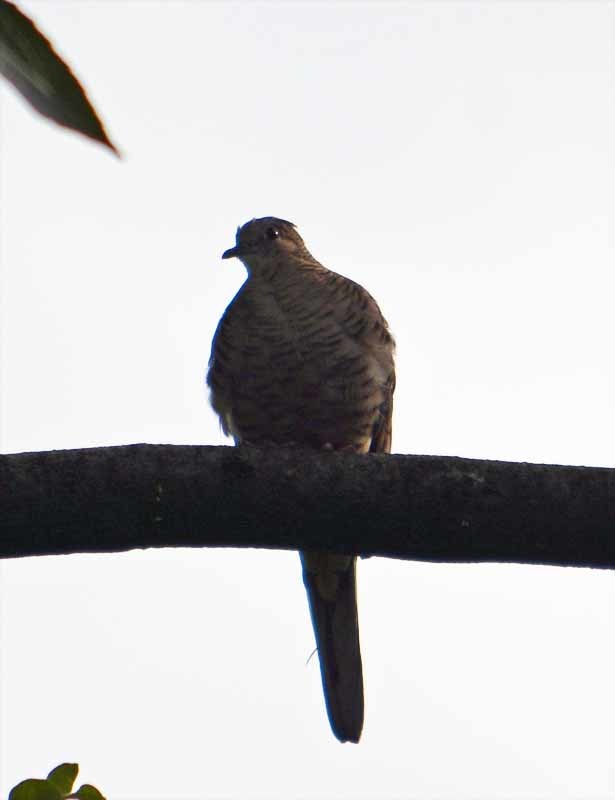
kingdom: Animalia
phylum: Chordata
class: Aves
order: Columbiformes
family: Columbidae
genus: Columbina
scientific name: Columbina inca
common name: Inca dove
